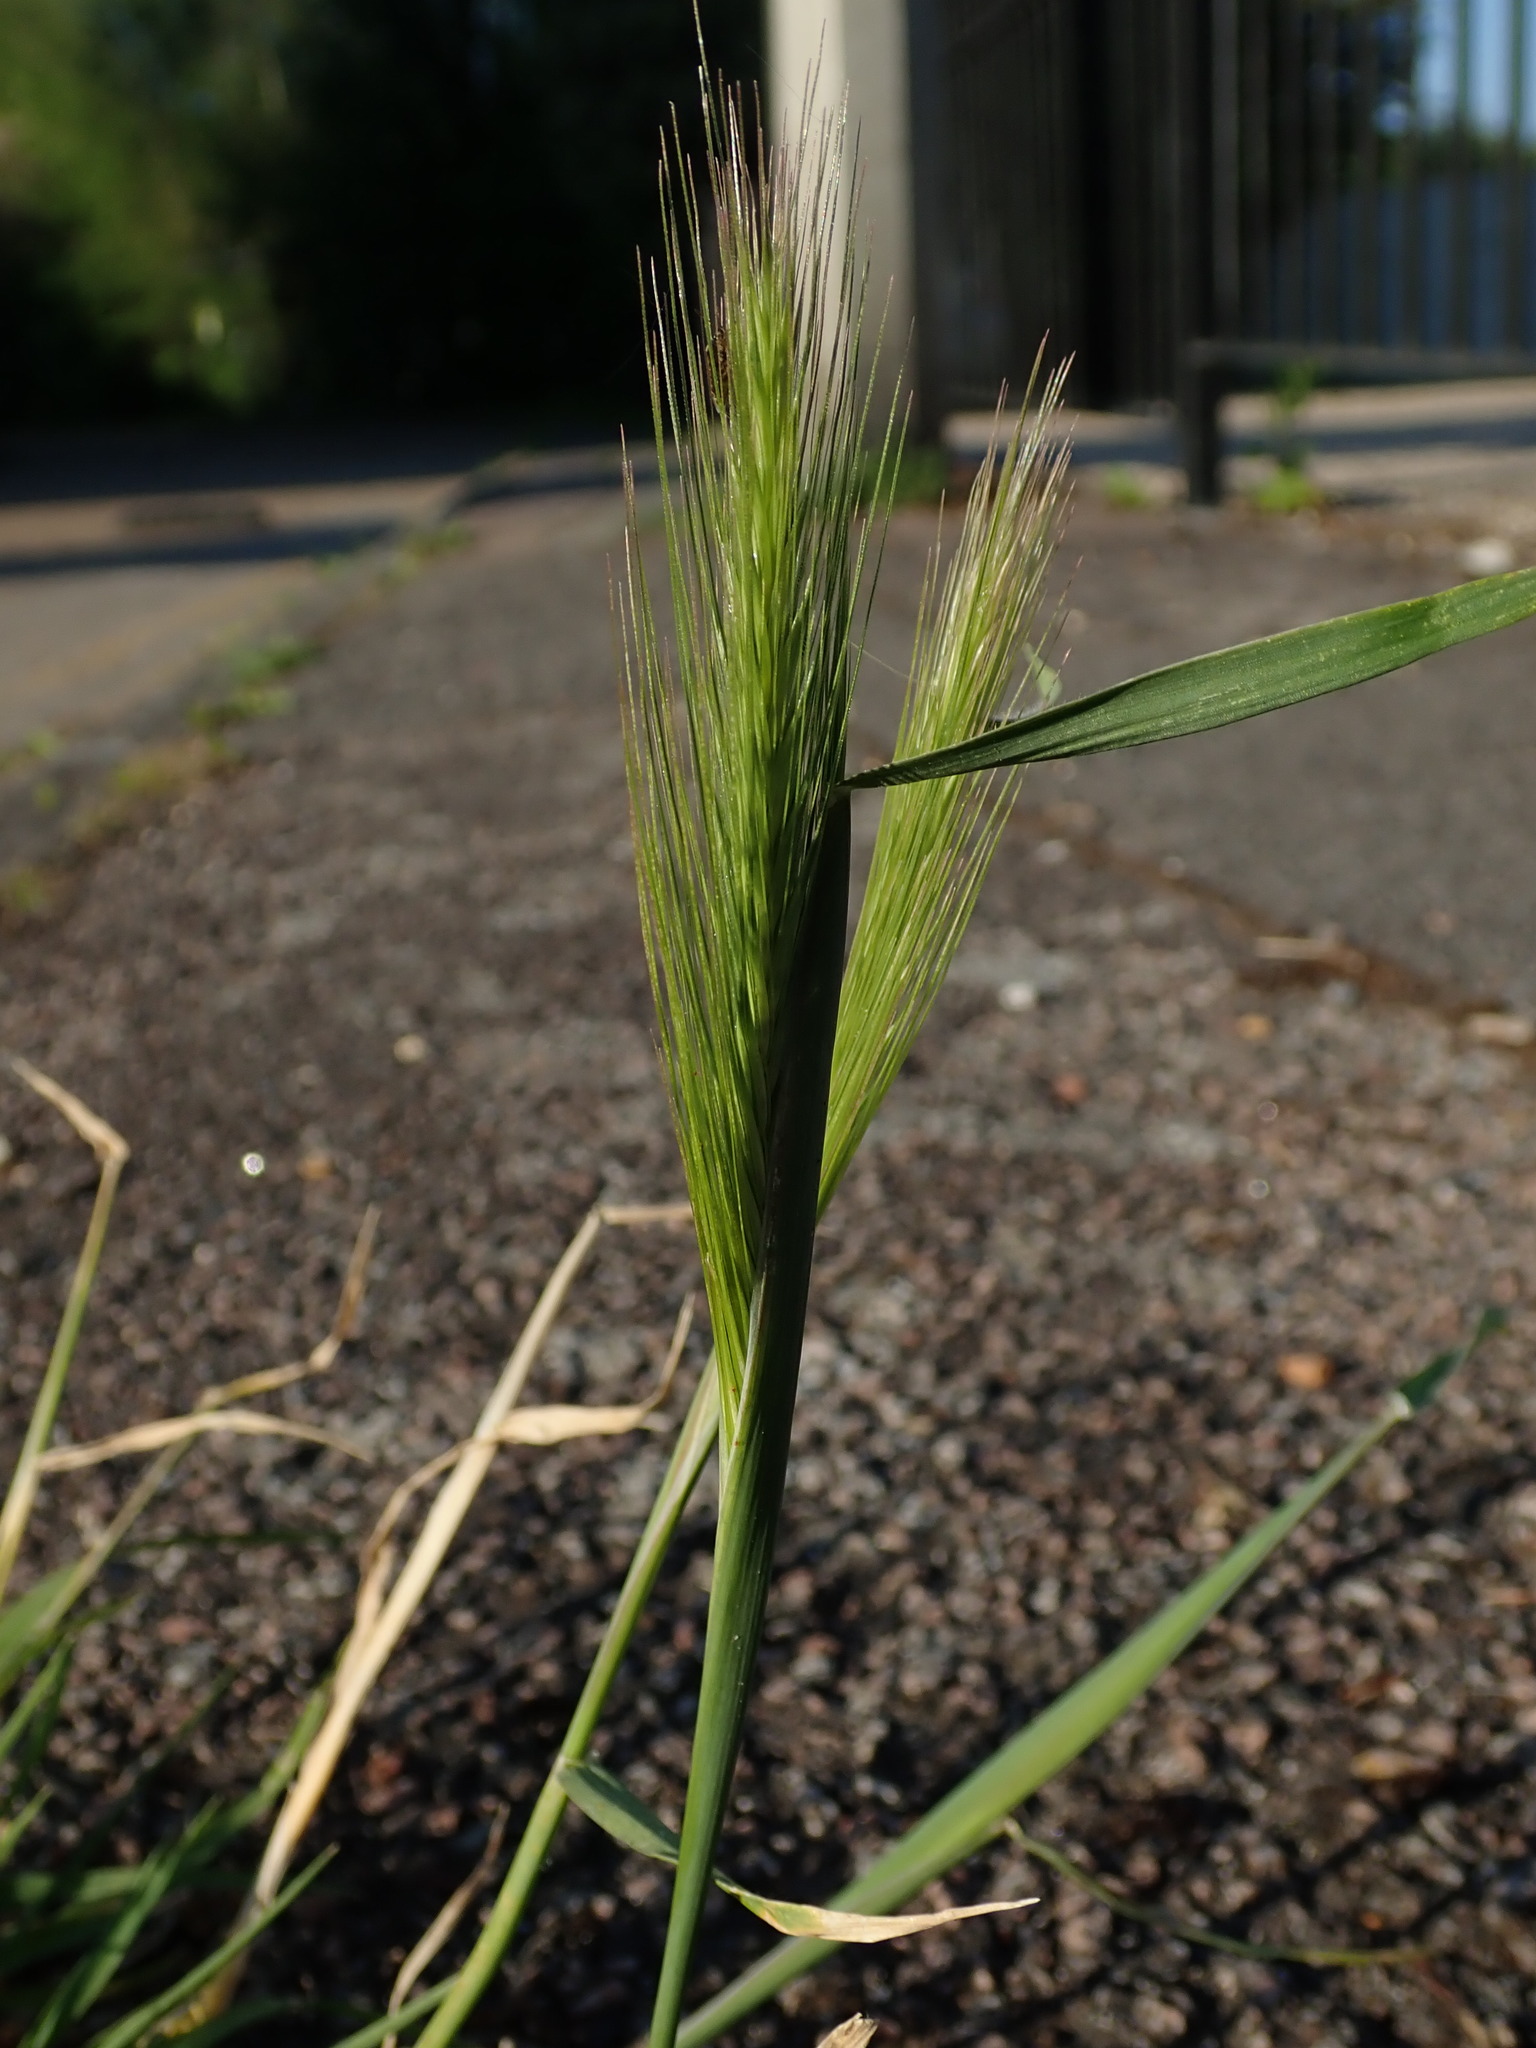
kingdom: Plantae
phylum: Tracheophyta
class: Liliopsida
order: Poales
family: Poaceae
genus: Hordeum
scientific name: Hordeum murinum
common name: Wall barley
